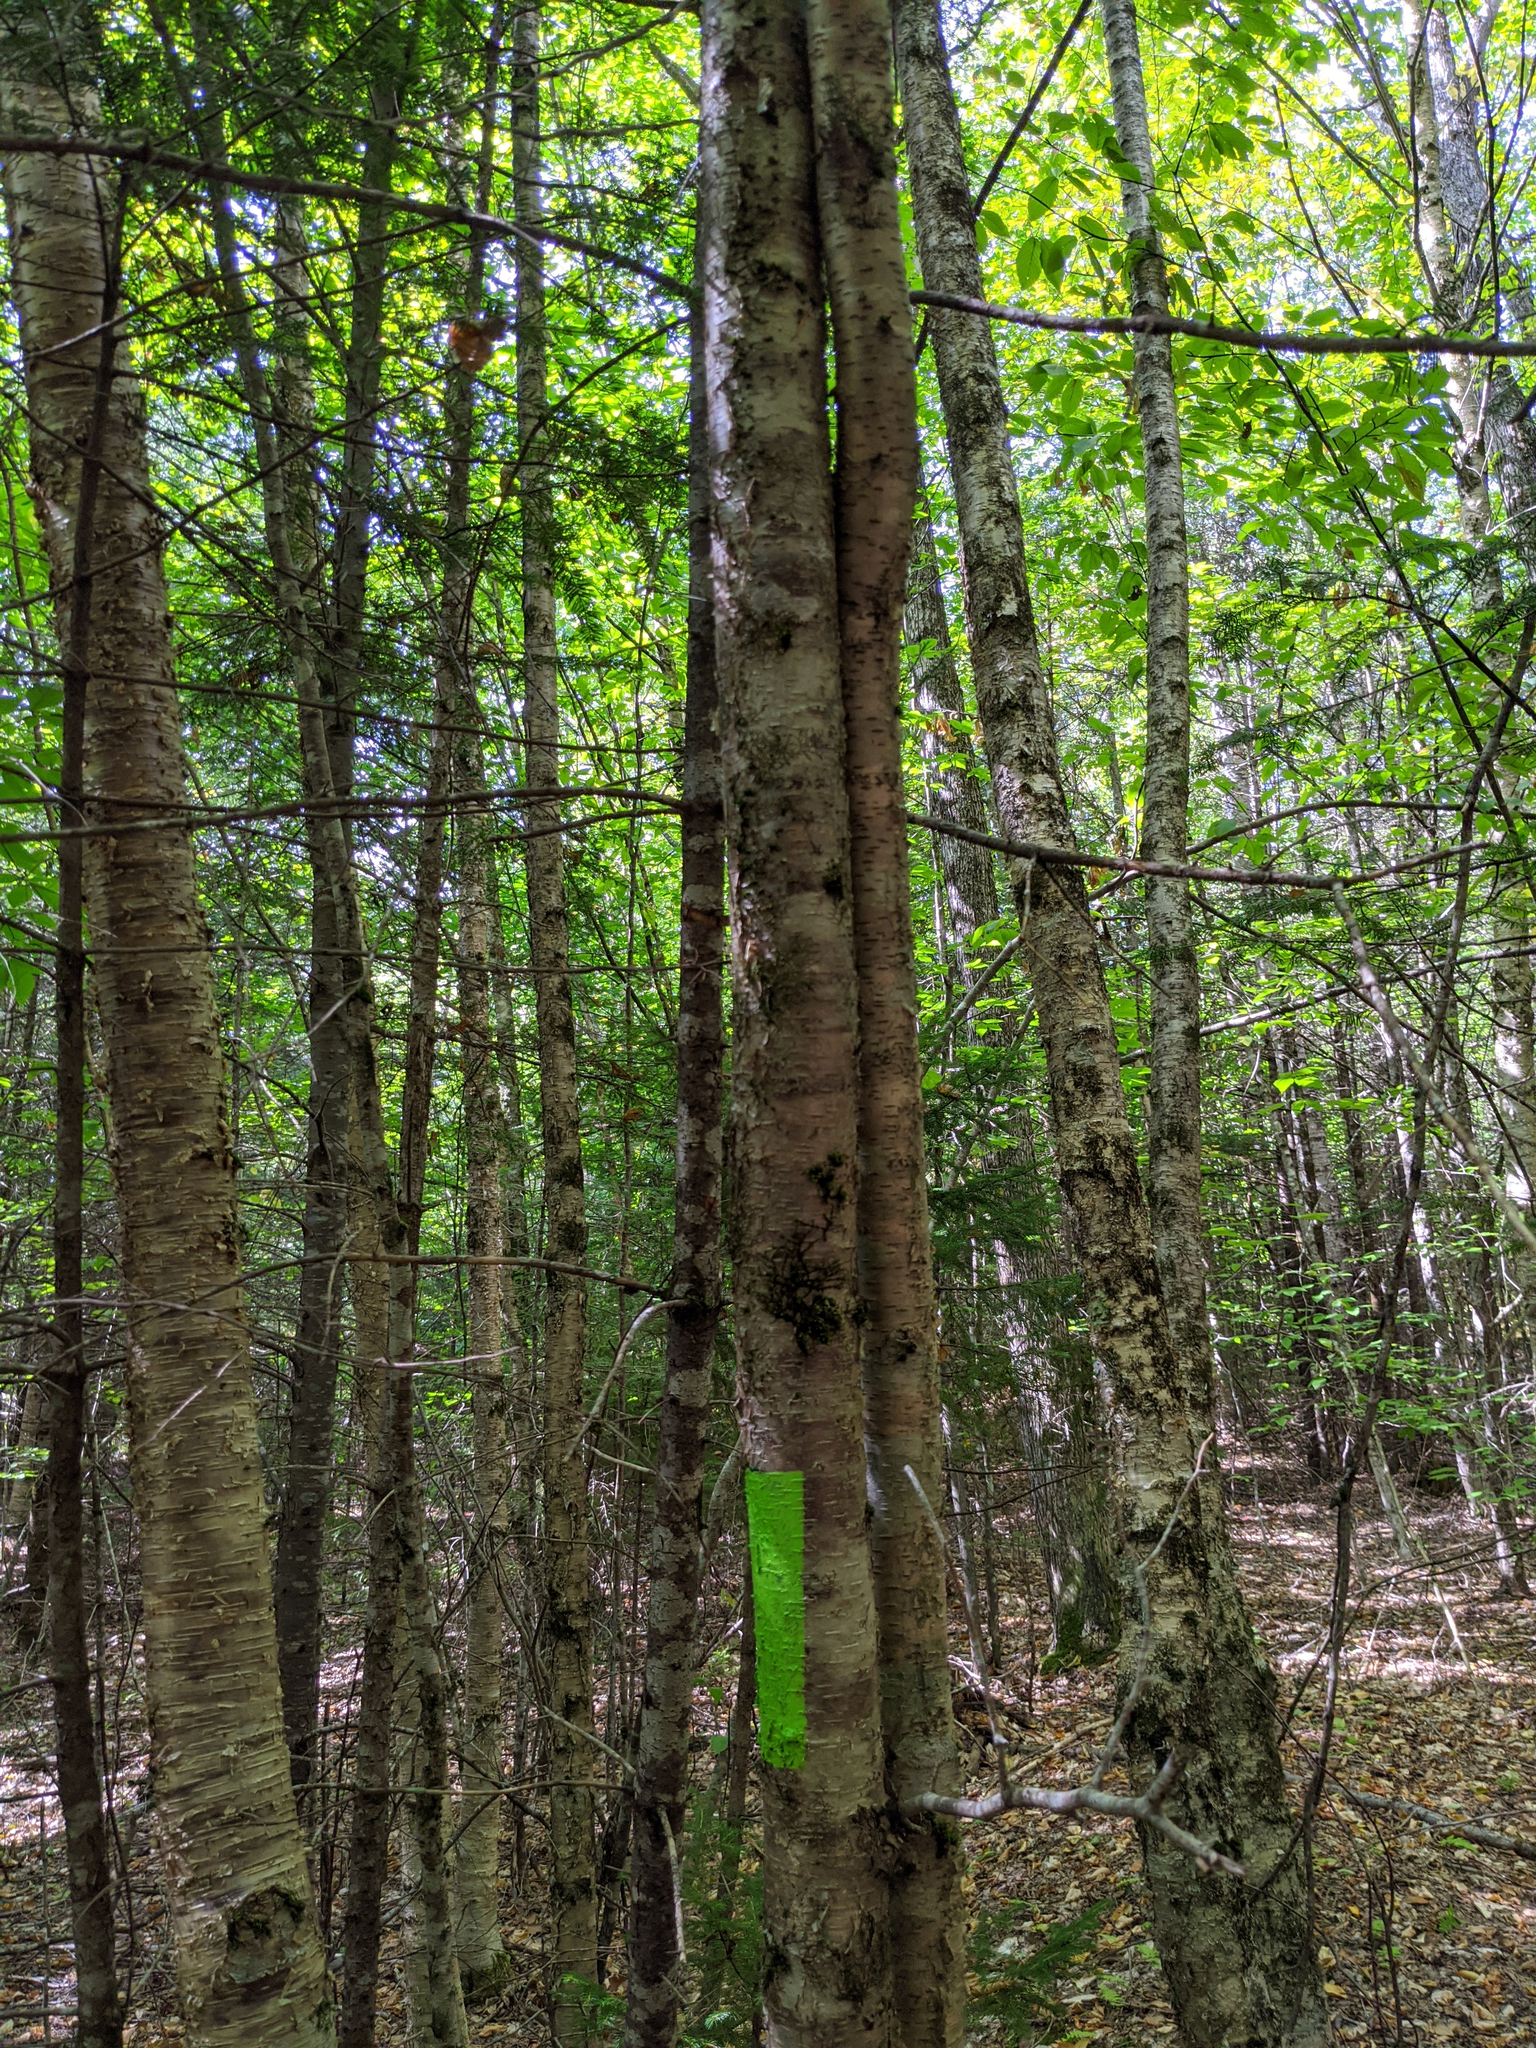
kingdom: Plantae
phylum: Tracheophyta
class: Magnoliopsida
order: Fagales
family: Betulaceae
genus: Betula
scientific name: Betula alleghaniensis
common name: Yellow birch
